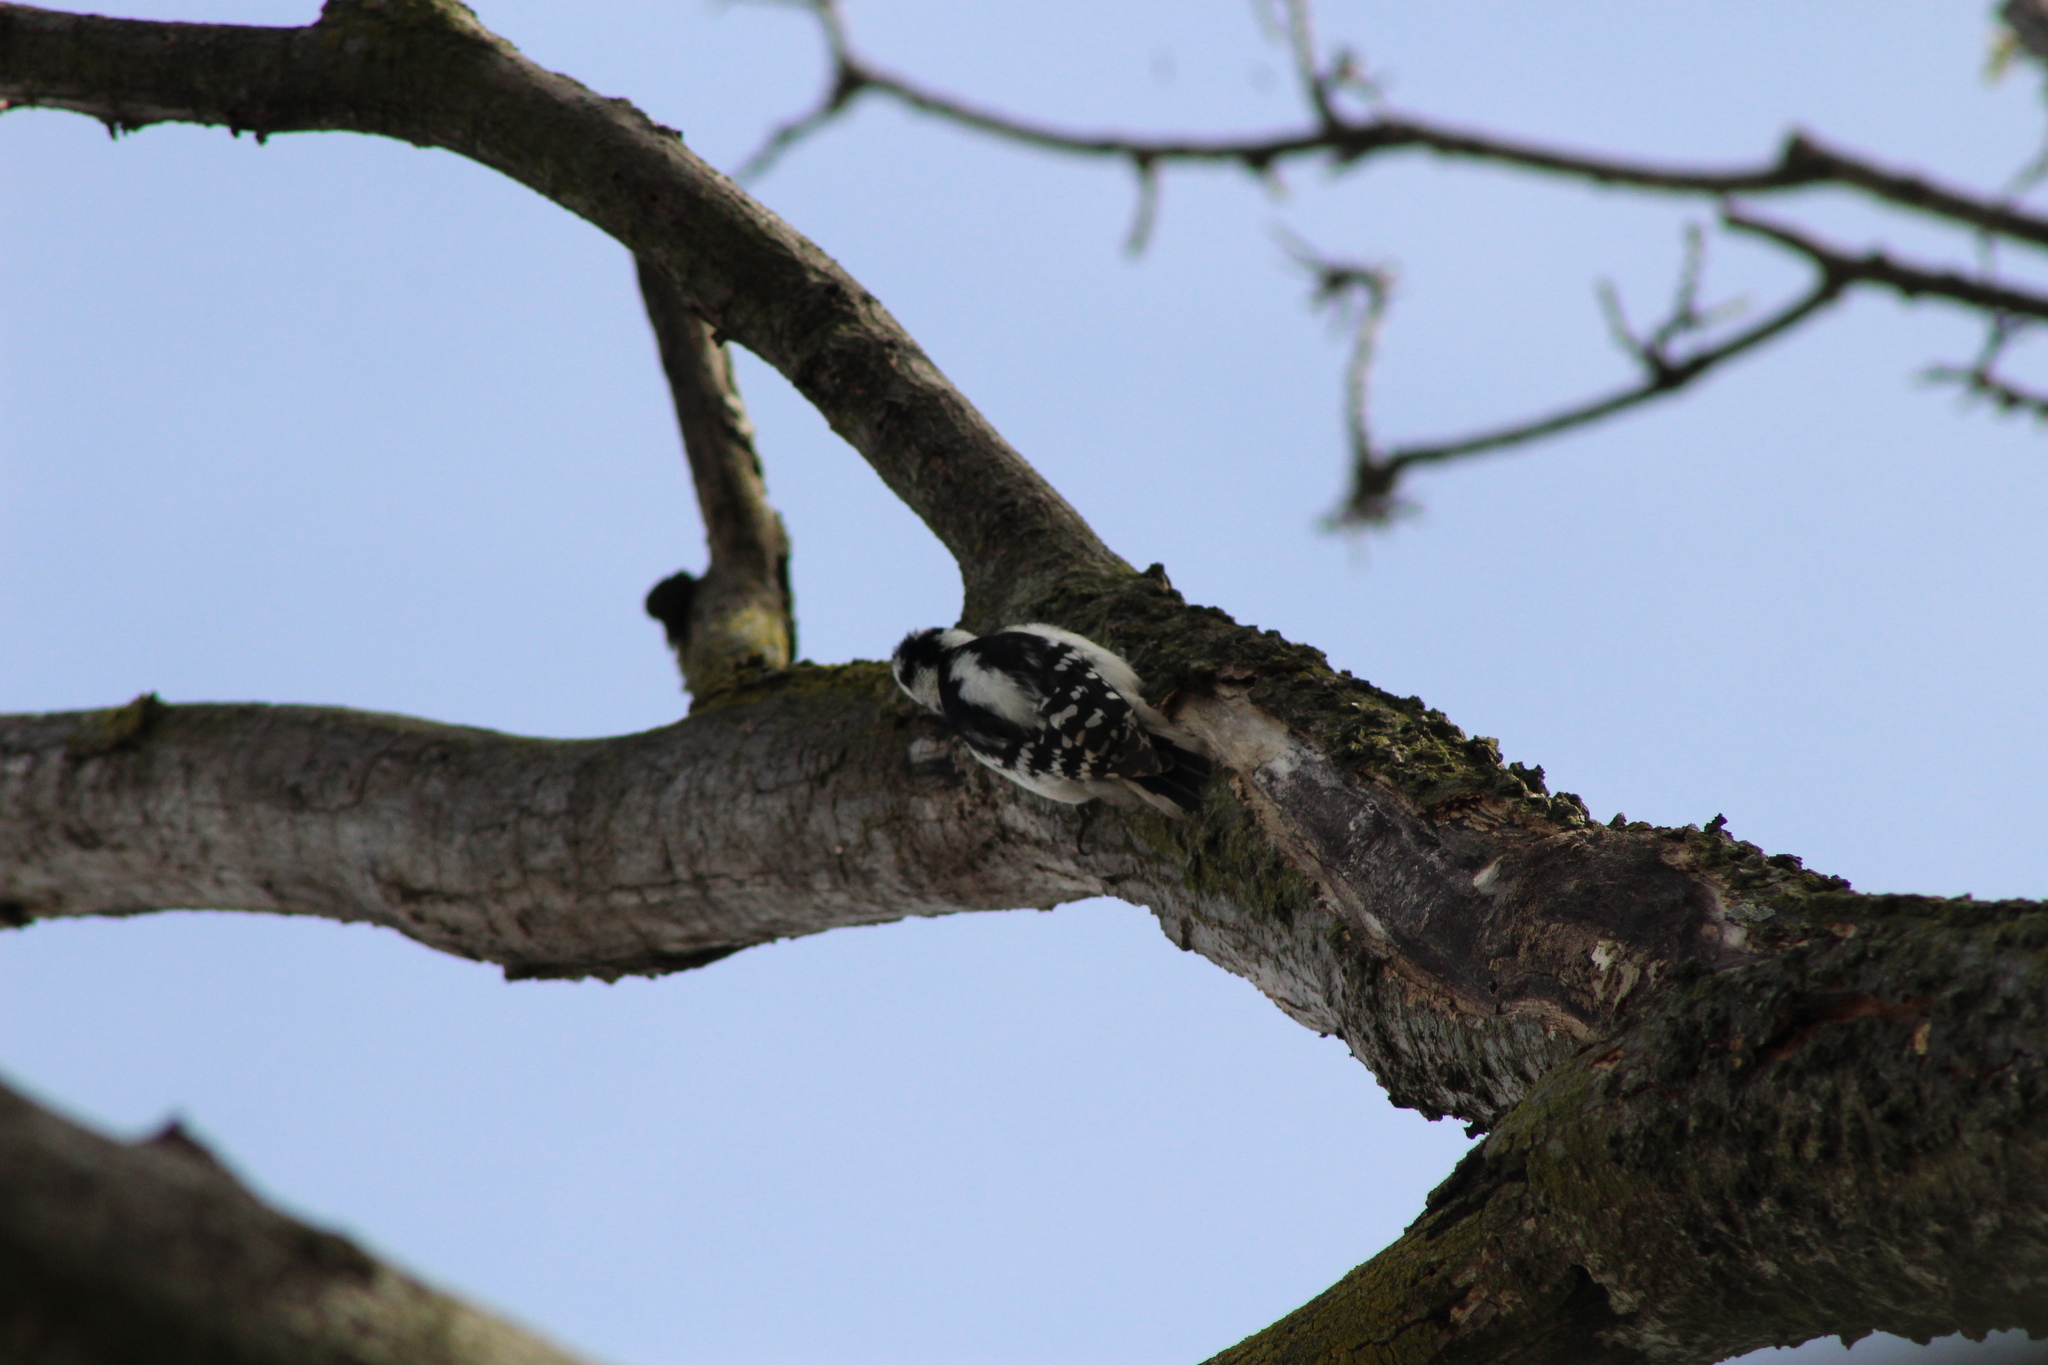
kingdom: Animalia
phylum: Chordata
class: Aves
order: Piciformes
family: Picidae
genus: Dryobates
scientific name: Dryobates pubescens
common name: Downy woodpecker
